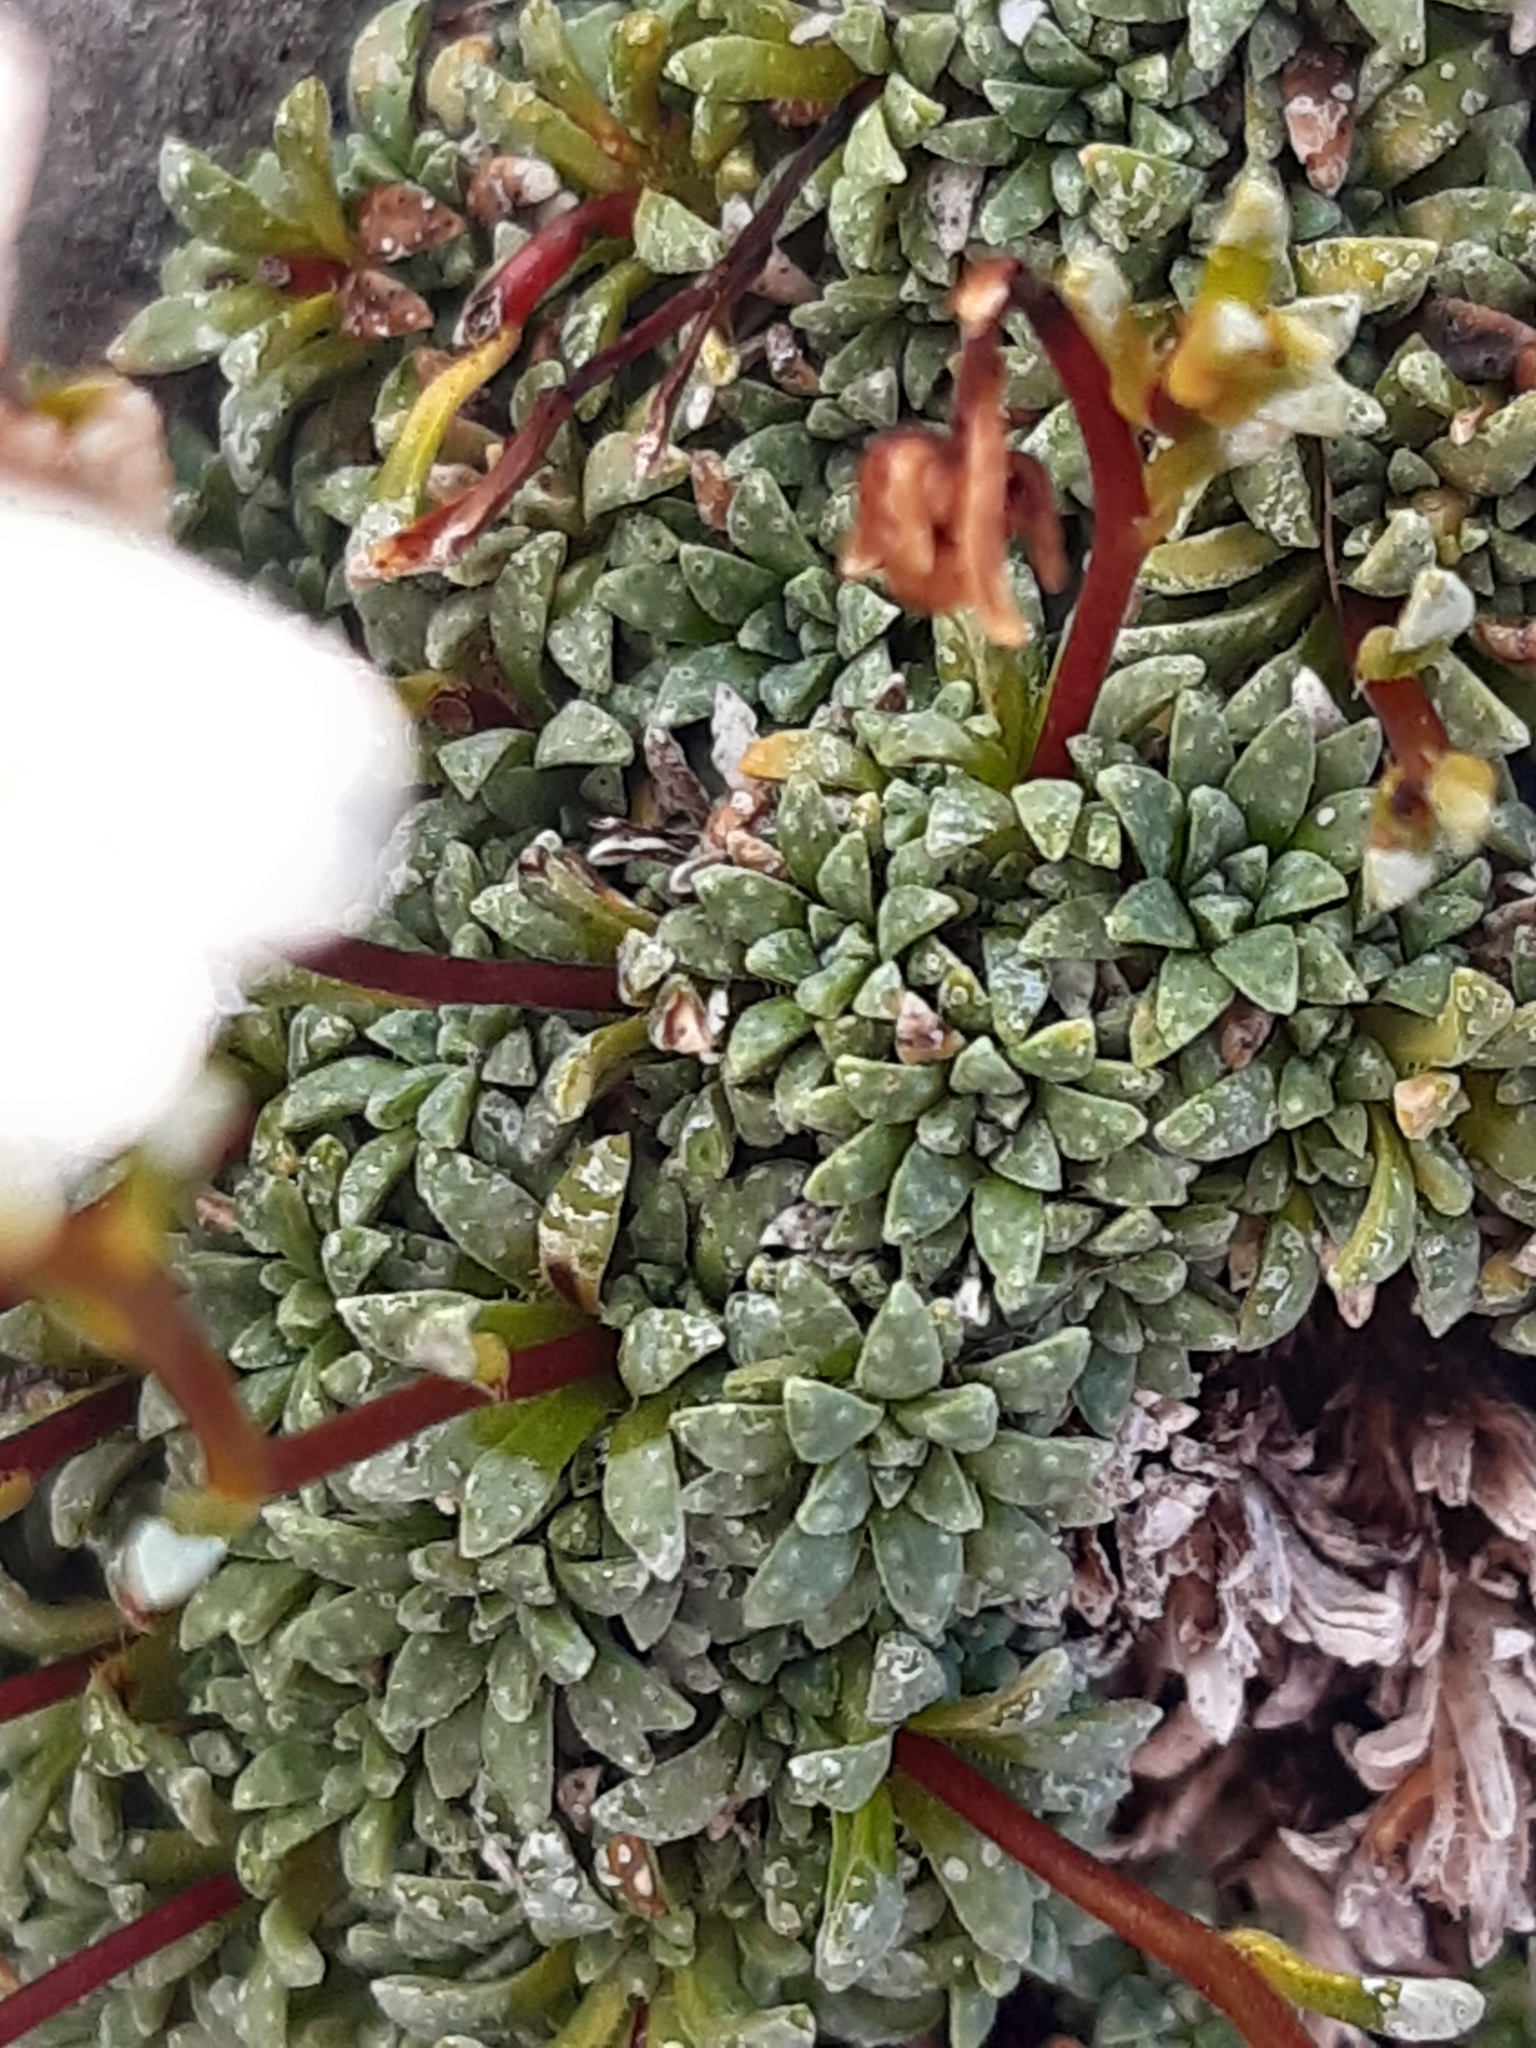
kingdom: Plantae
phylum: Tracheophyta
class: Magnoliopsida
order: Saxifragales
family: Saxifragaceae
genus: Saxifraga
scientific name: Saxifraga caesia
